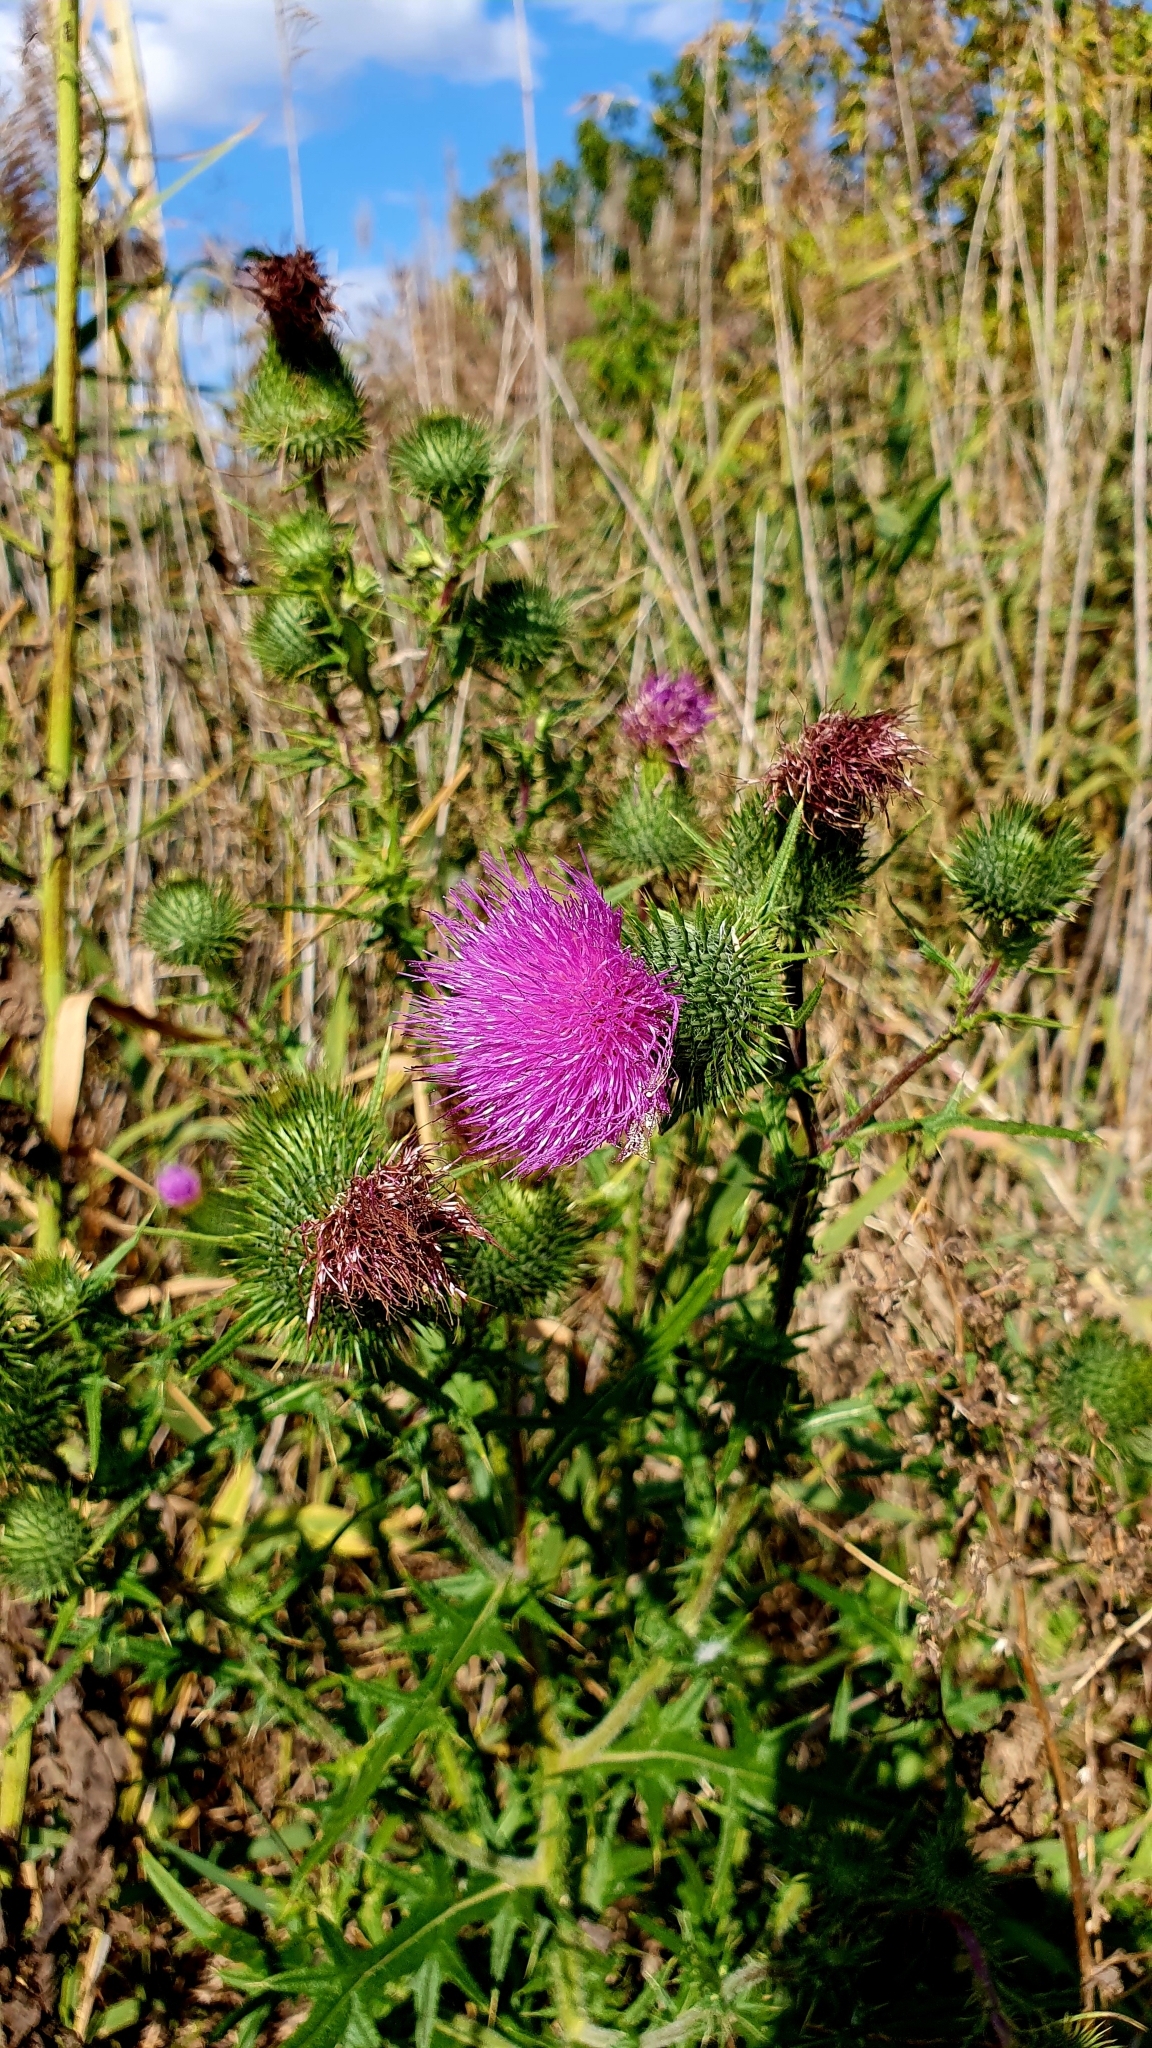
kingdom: Plantae
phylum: Tracheophyta
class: Magnoliopsida
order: Asterales
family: Asteraceae
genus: Carduus
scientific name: Carduus acanthoides
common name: Plumeless thistle
